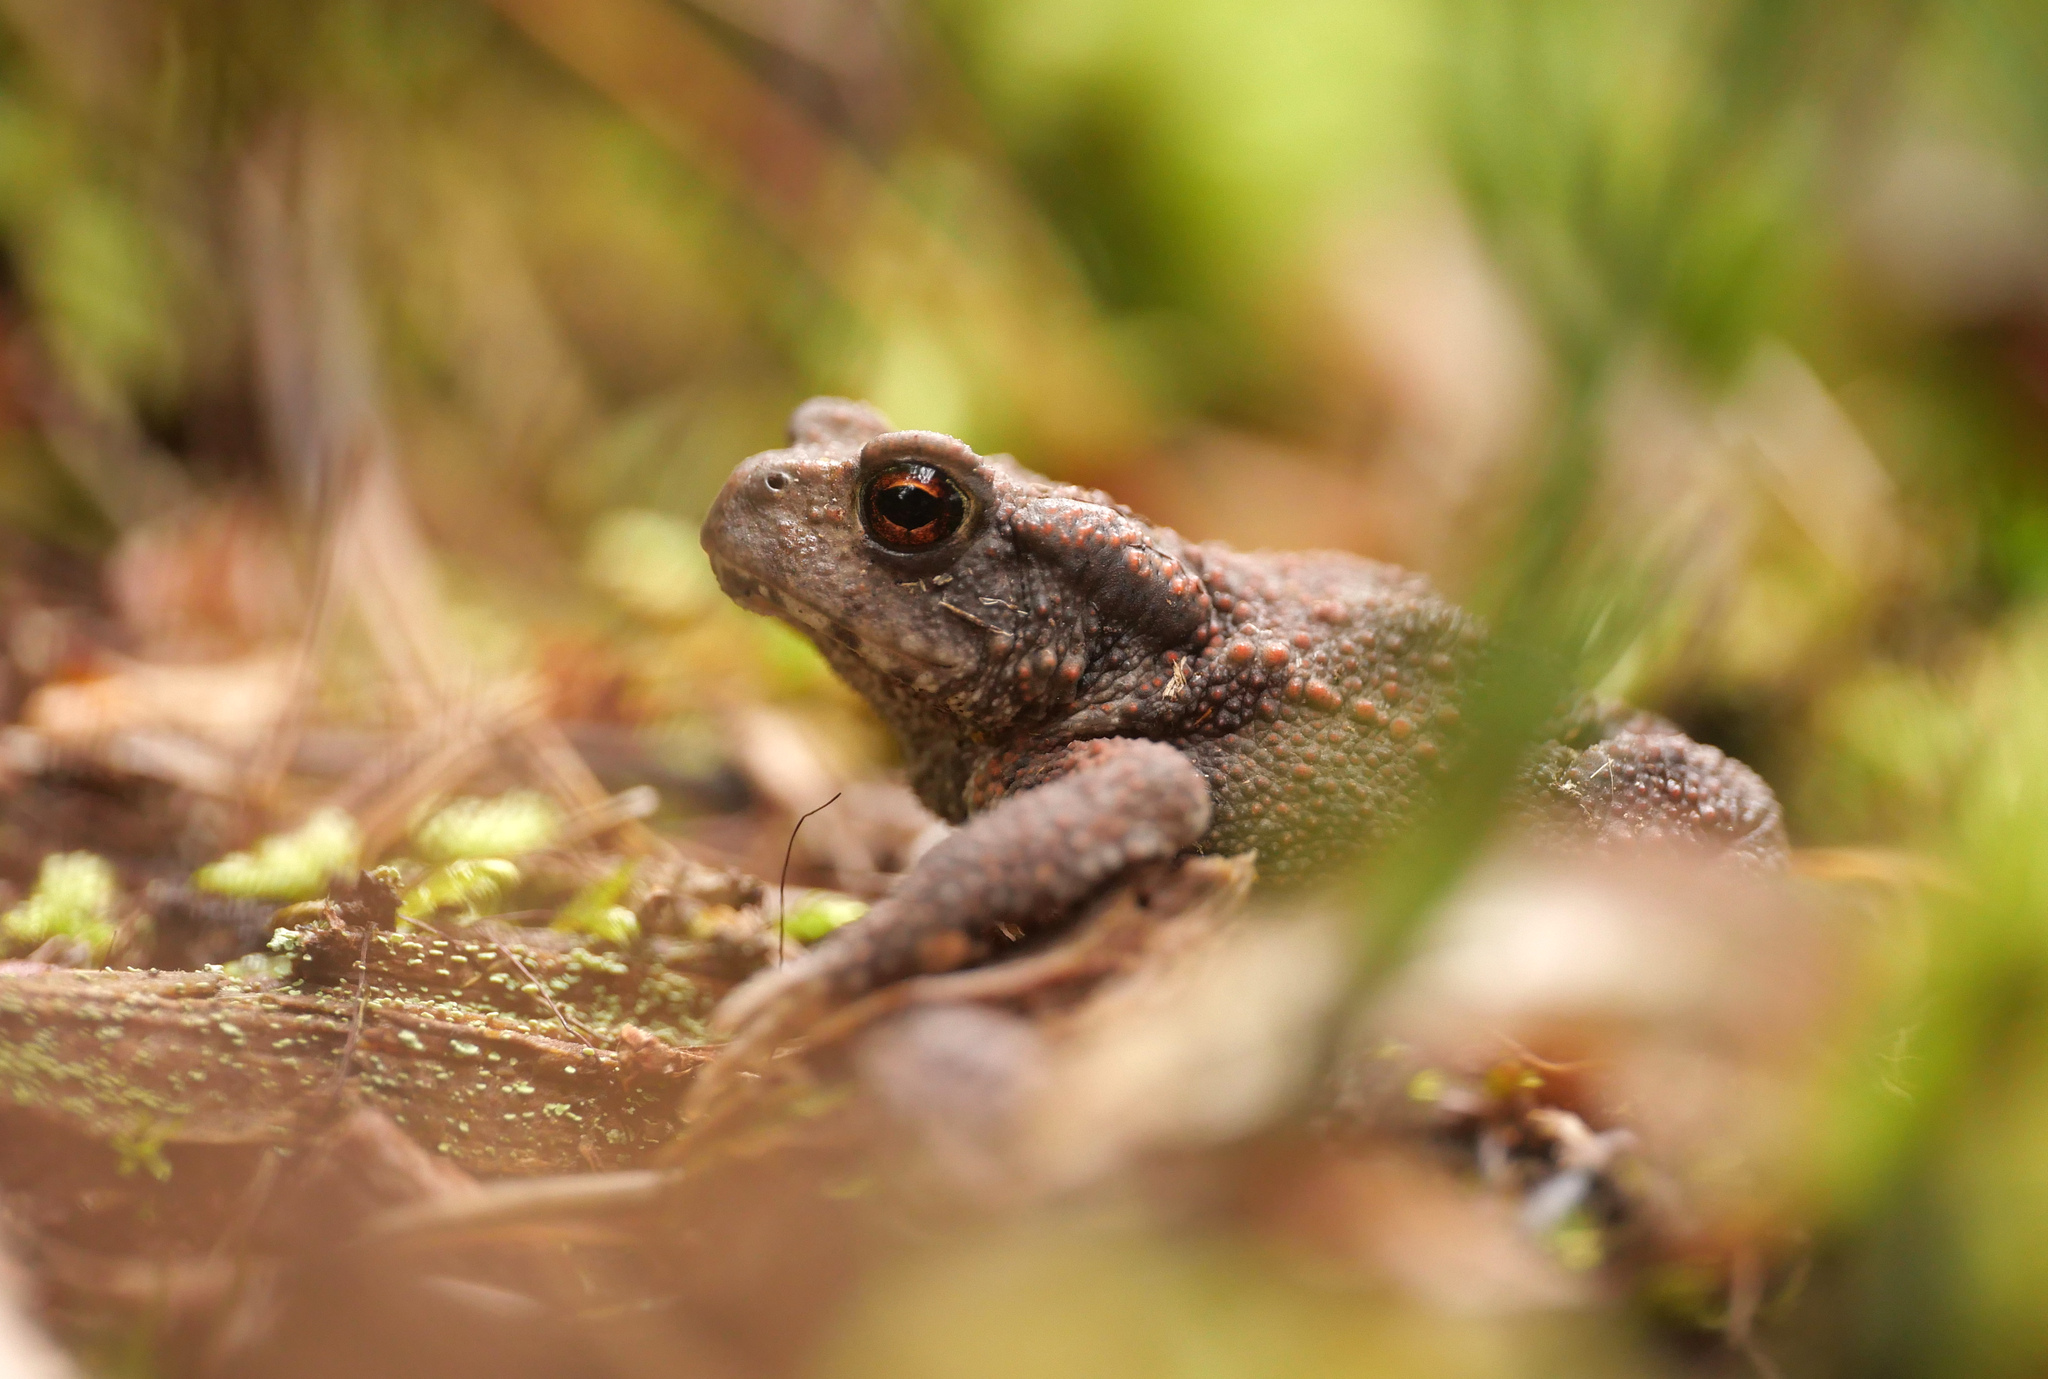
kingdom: Animalia
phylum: Chordata
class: Amphibia
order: Anura
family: Bufonidae
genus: Bufo
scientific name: Bufo bufo
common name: Common toad
